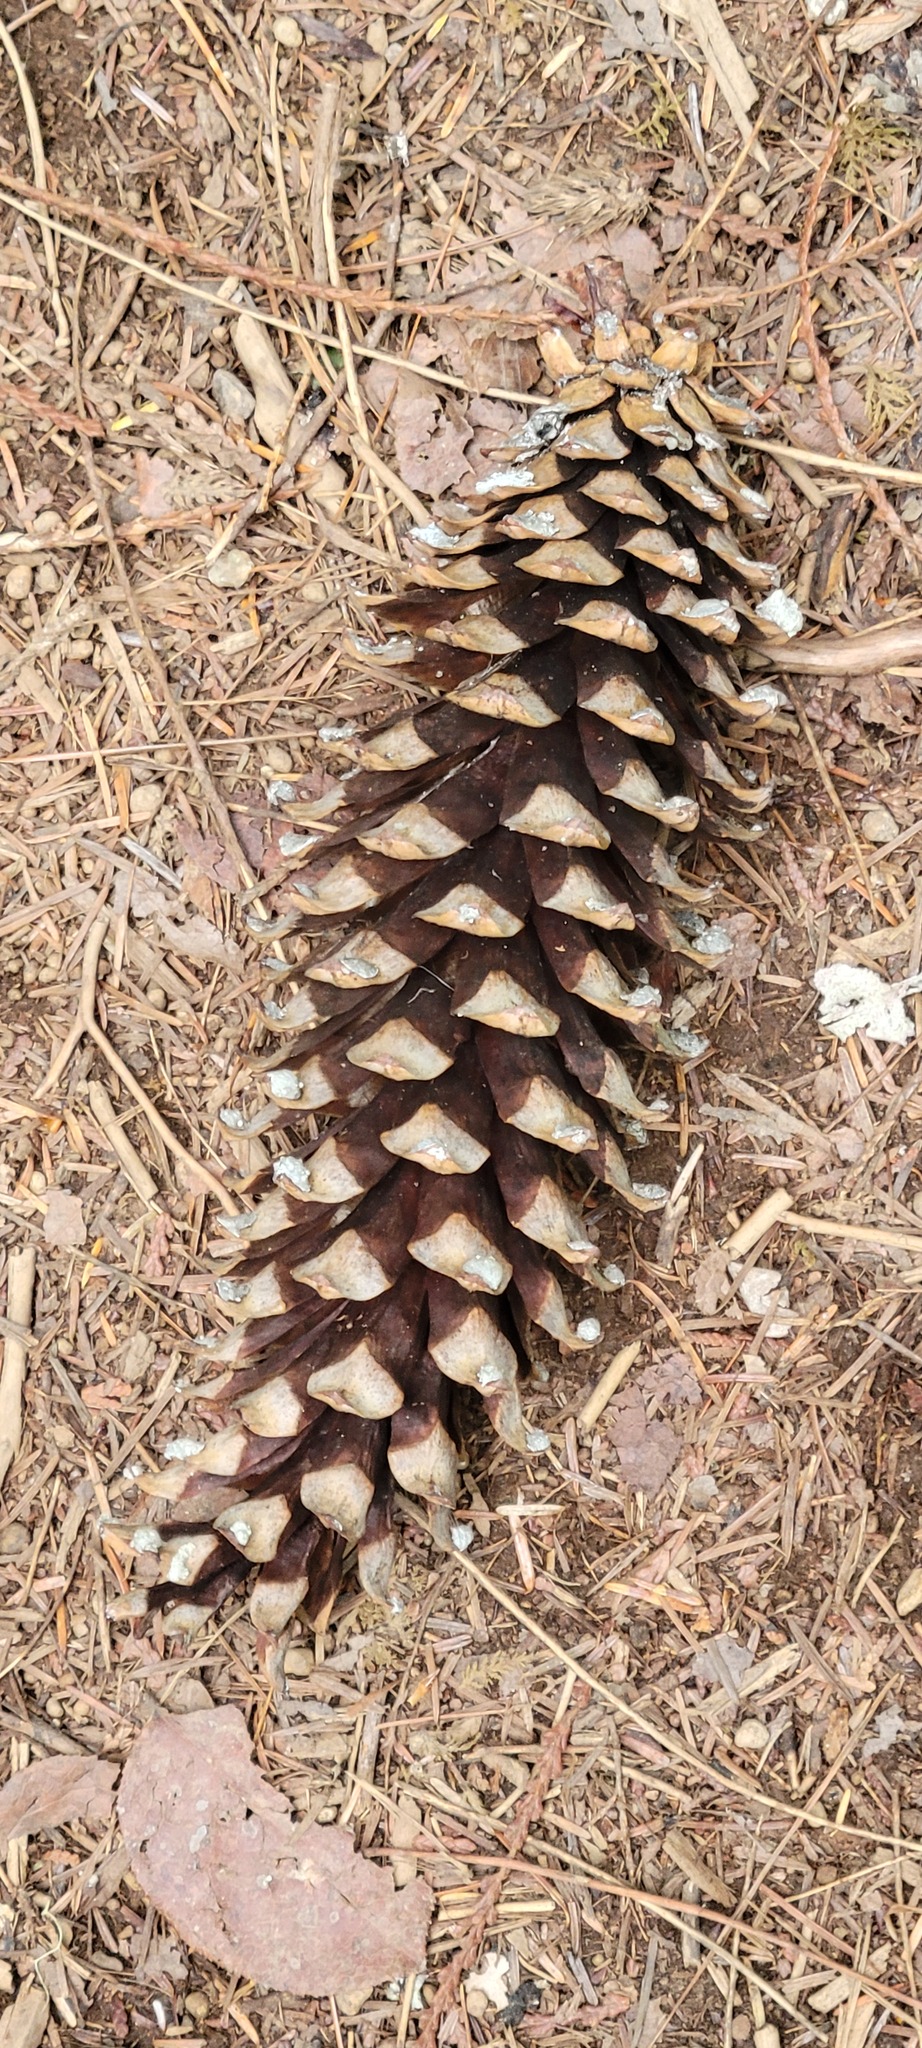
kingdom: Plantae
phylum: Tracheophyta
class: Pinopsida
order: Pinales
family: Pinaceae
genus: Pinus
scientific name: Pinus monticola
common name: Western white pine
